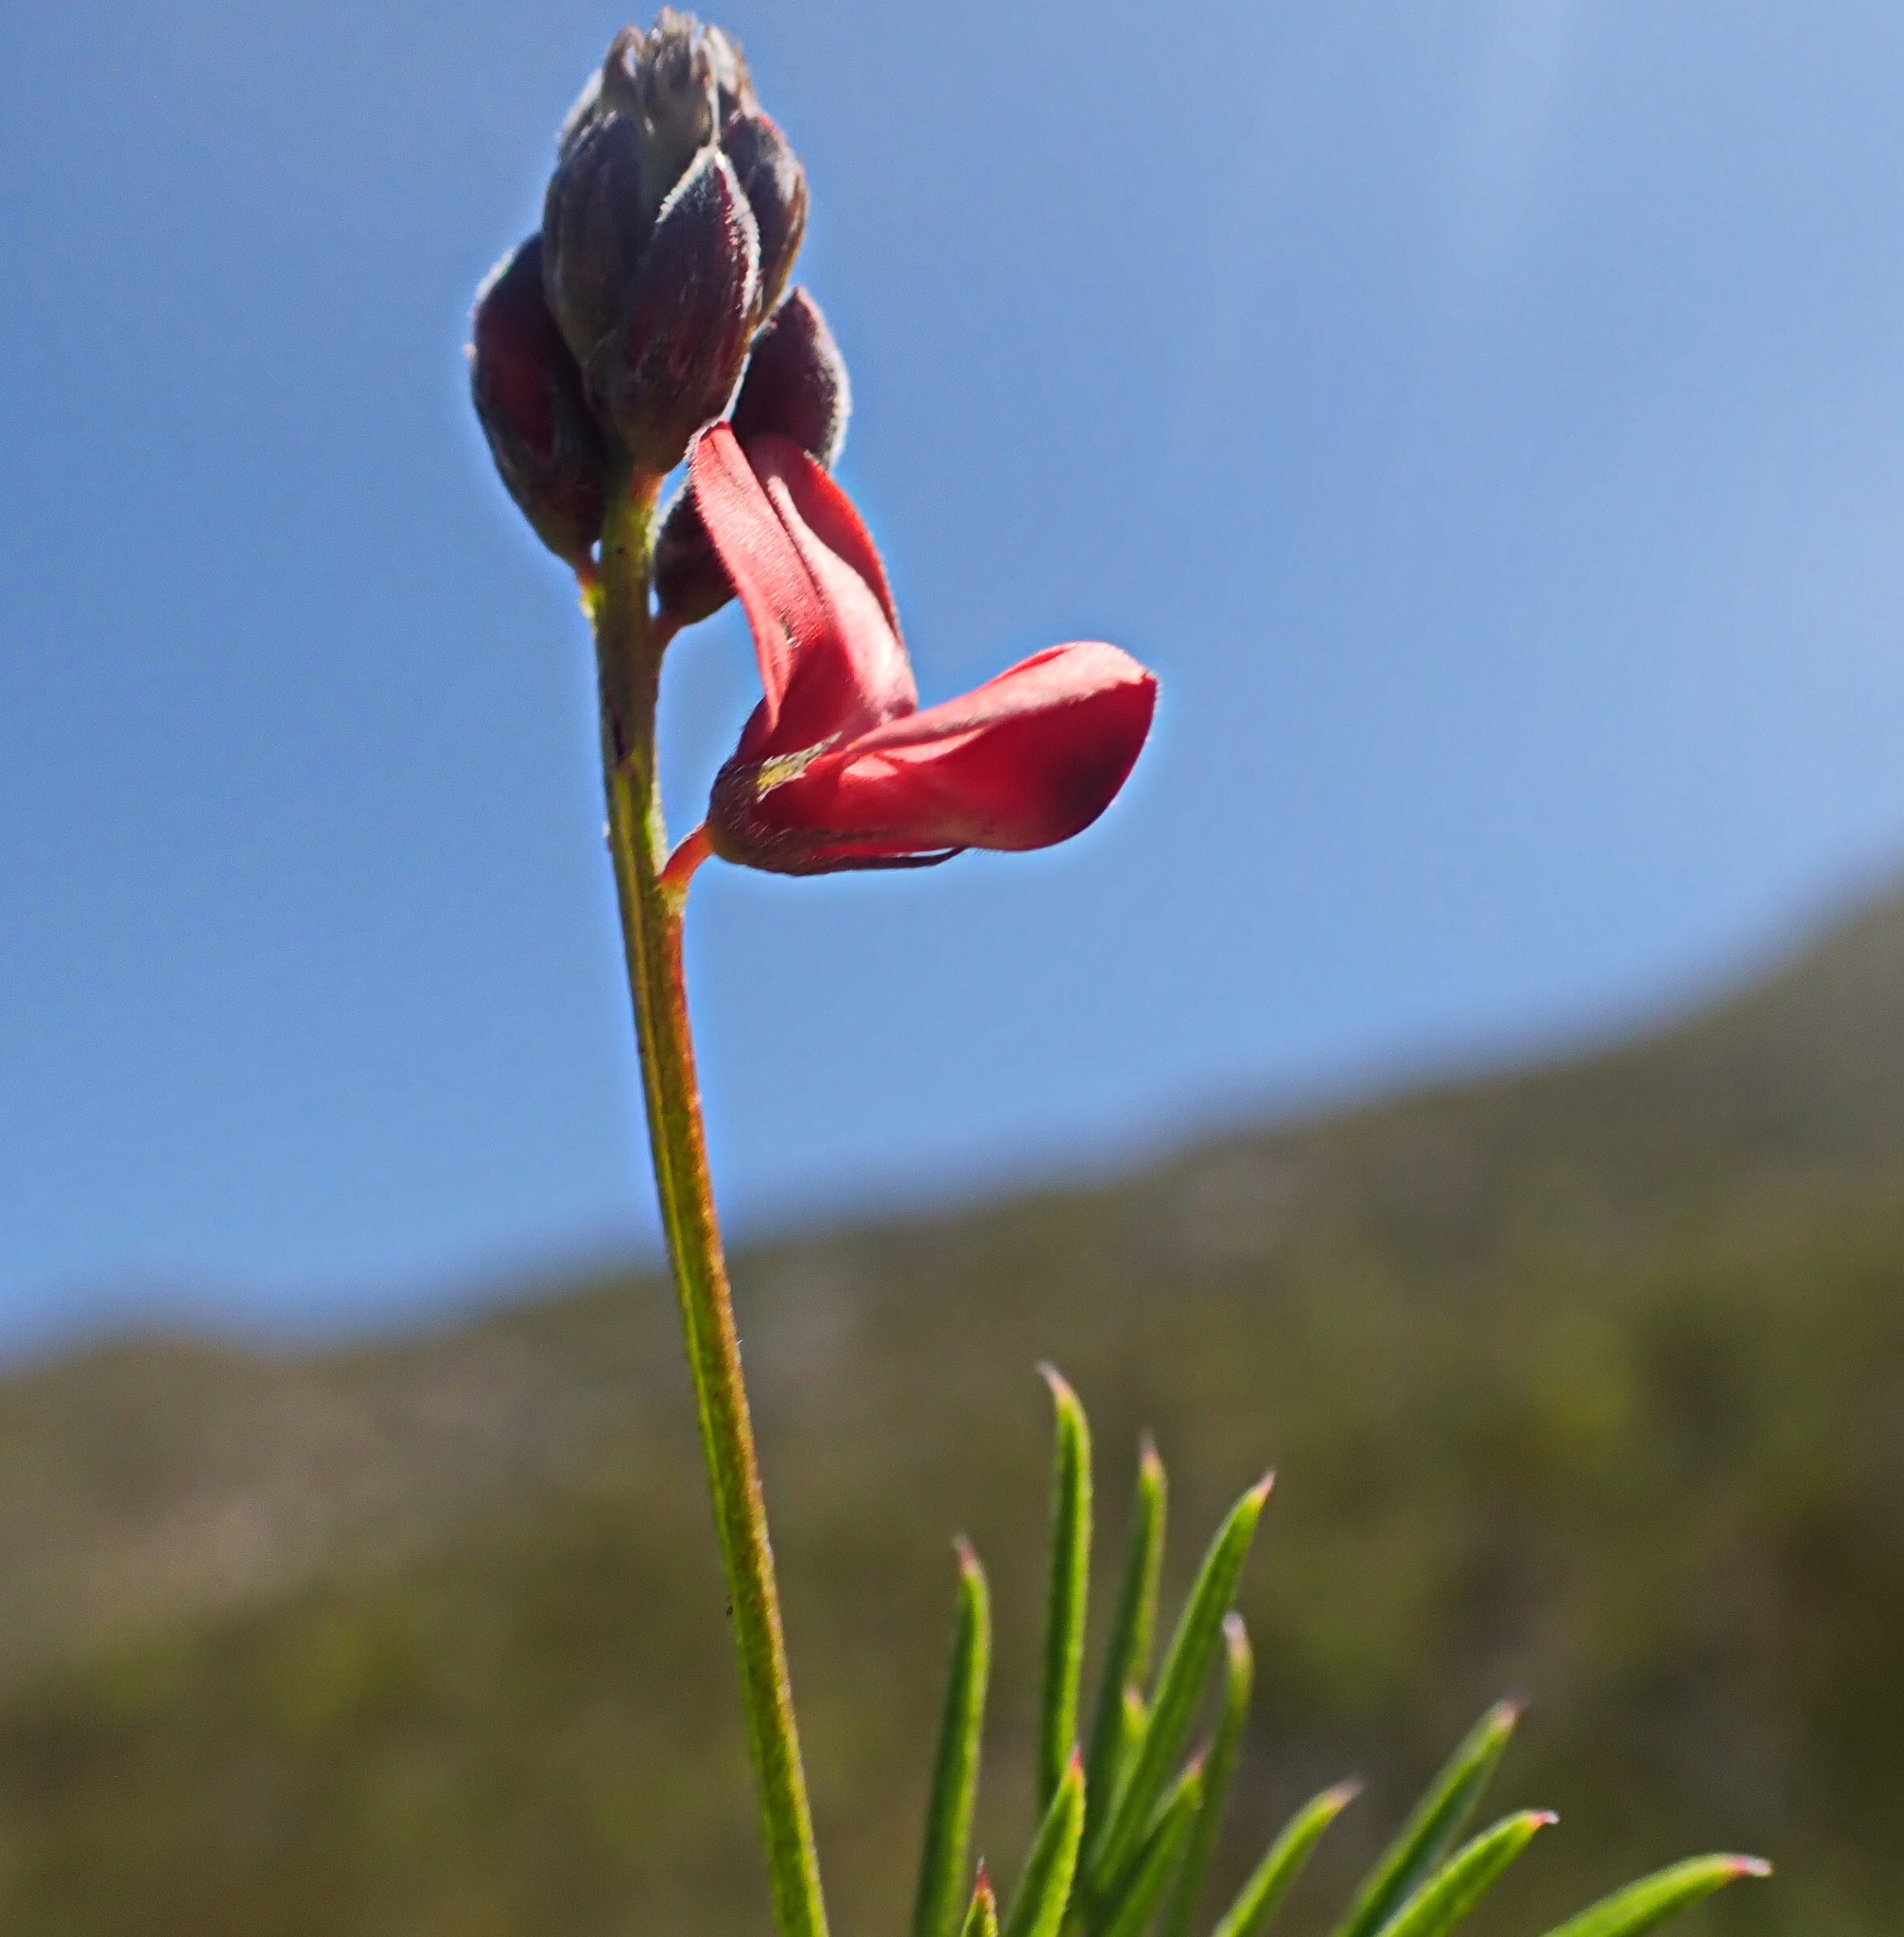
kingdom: Plantae
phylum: Tracheophyta
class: Magnoliopsida
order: Fabales
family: Fabaceae
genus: Indigofera
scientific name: Indigofera heterophylla
